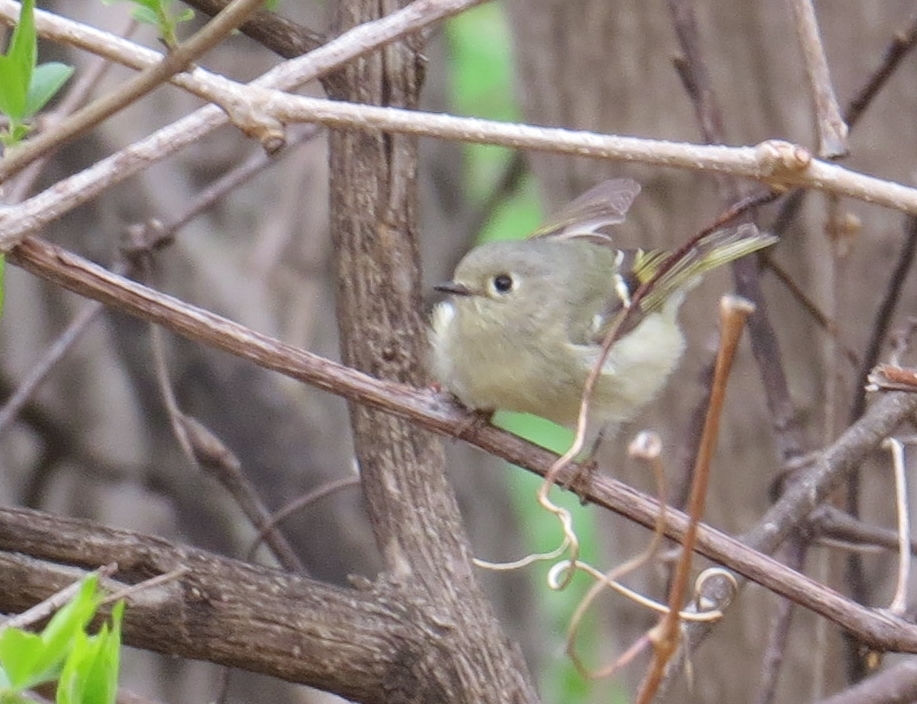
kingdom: Animalia
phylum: Chordata
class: Aves
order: Passeriformes
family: Regulidae
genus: Regulus
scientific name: Regulus calendula
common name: Ruby-crowned kinglet
